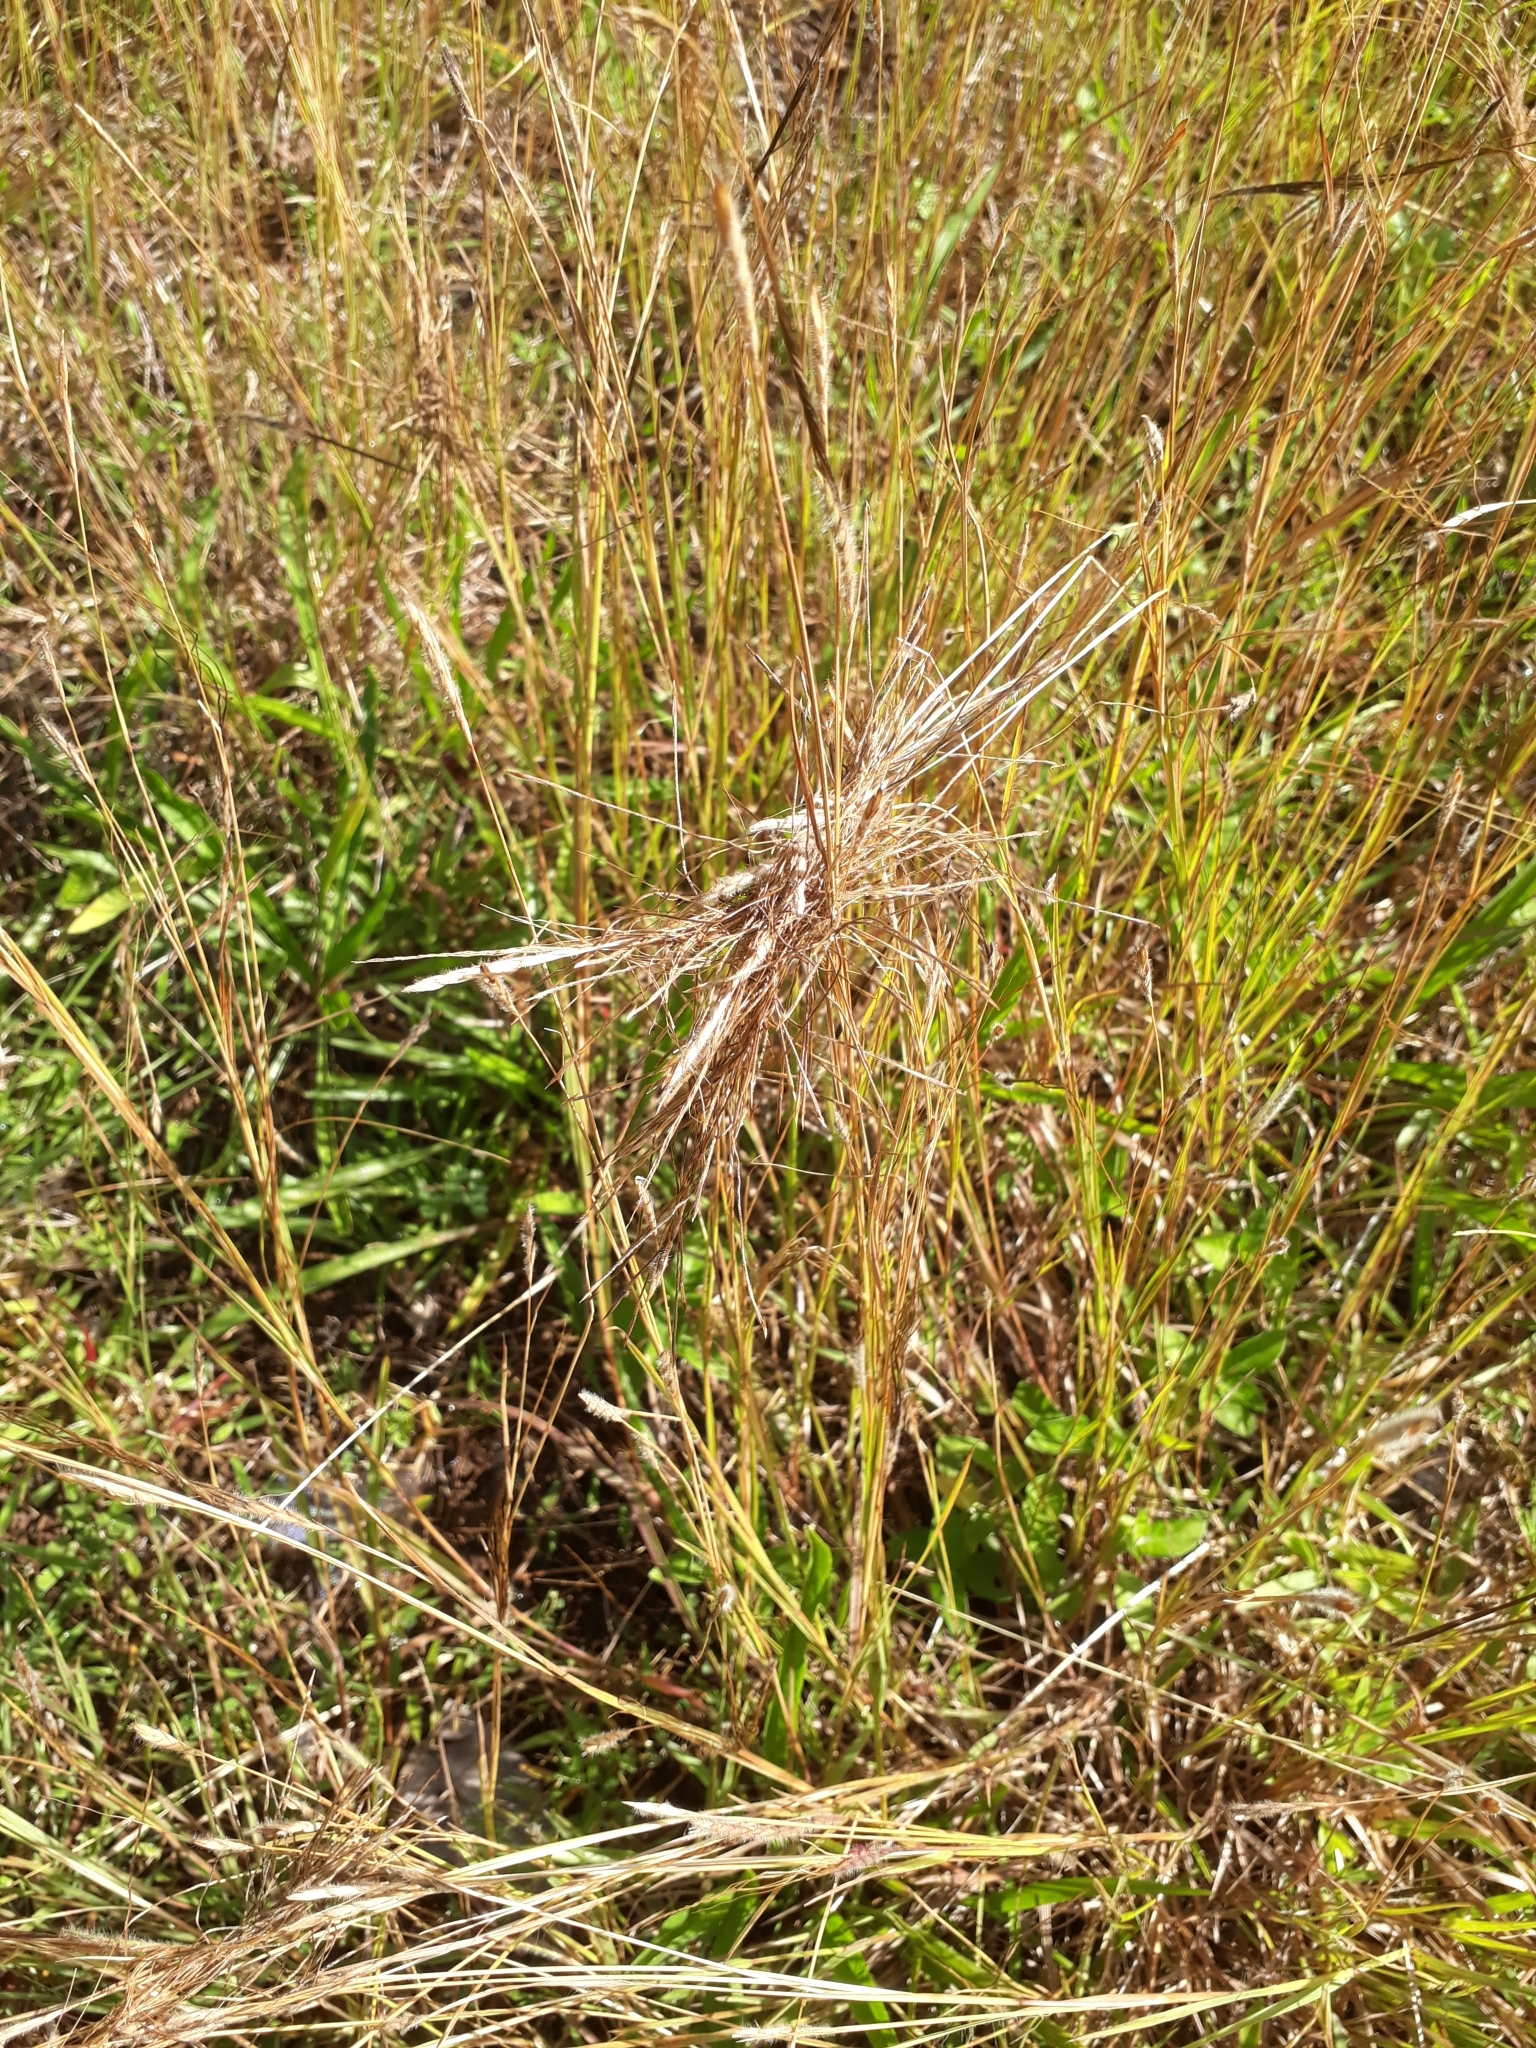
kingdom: Plantae
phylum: Tracheophyta
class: Liliopsida
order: Poales
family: Poaceae
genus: Heteropogon
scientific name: Heteropogon contortus
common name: Tanglehead
